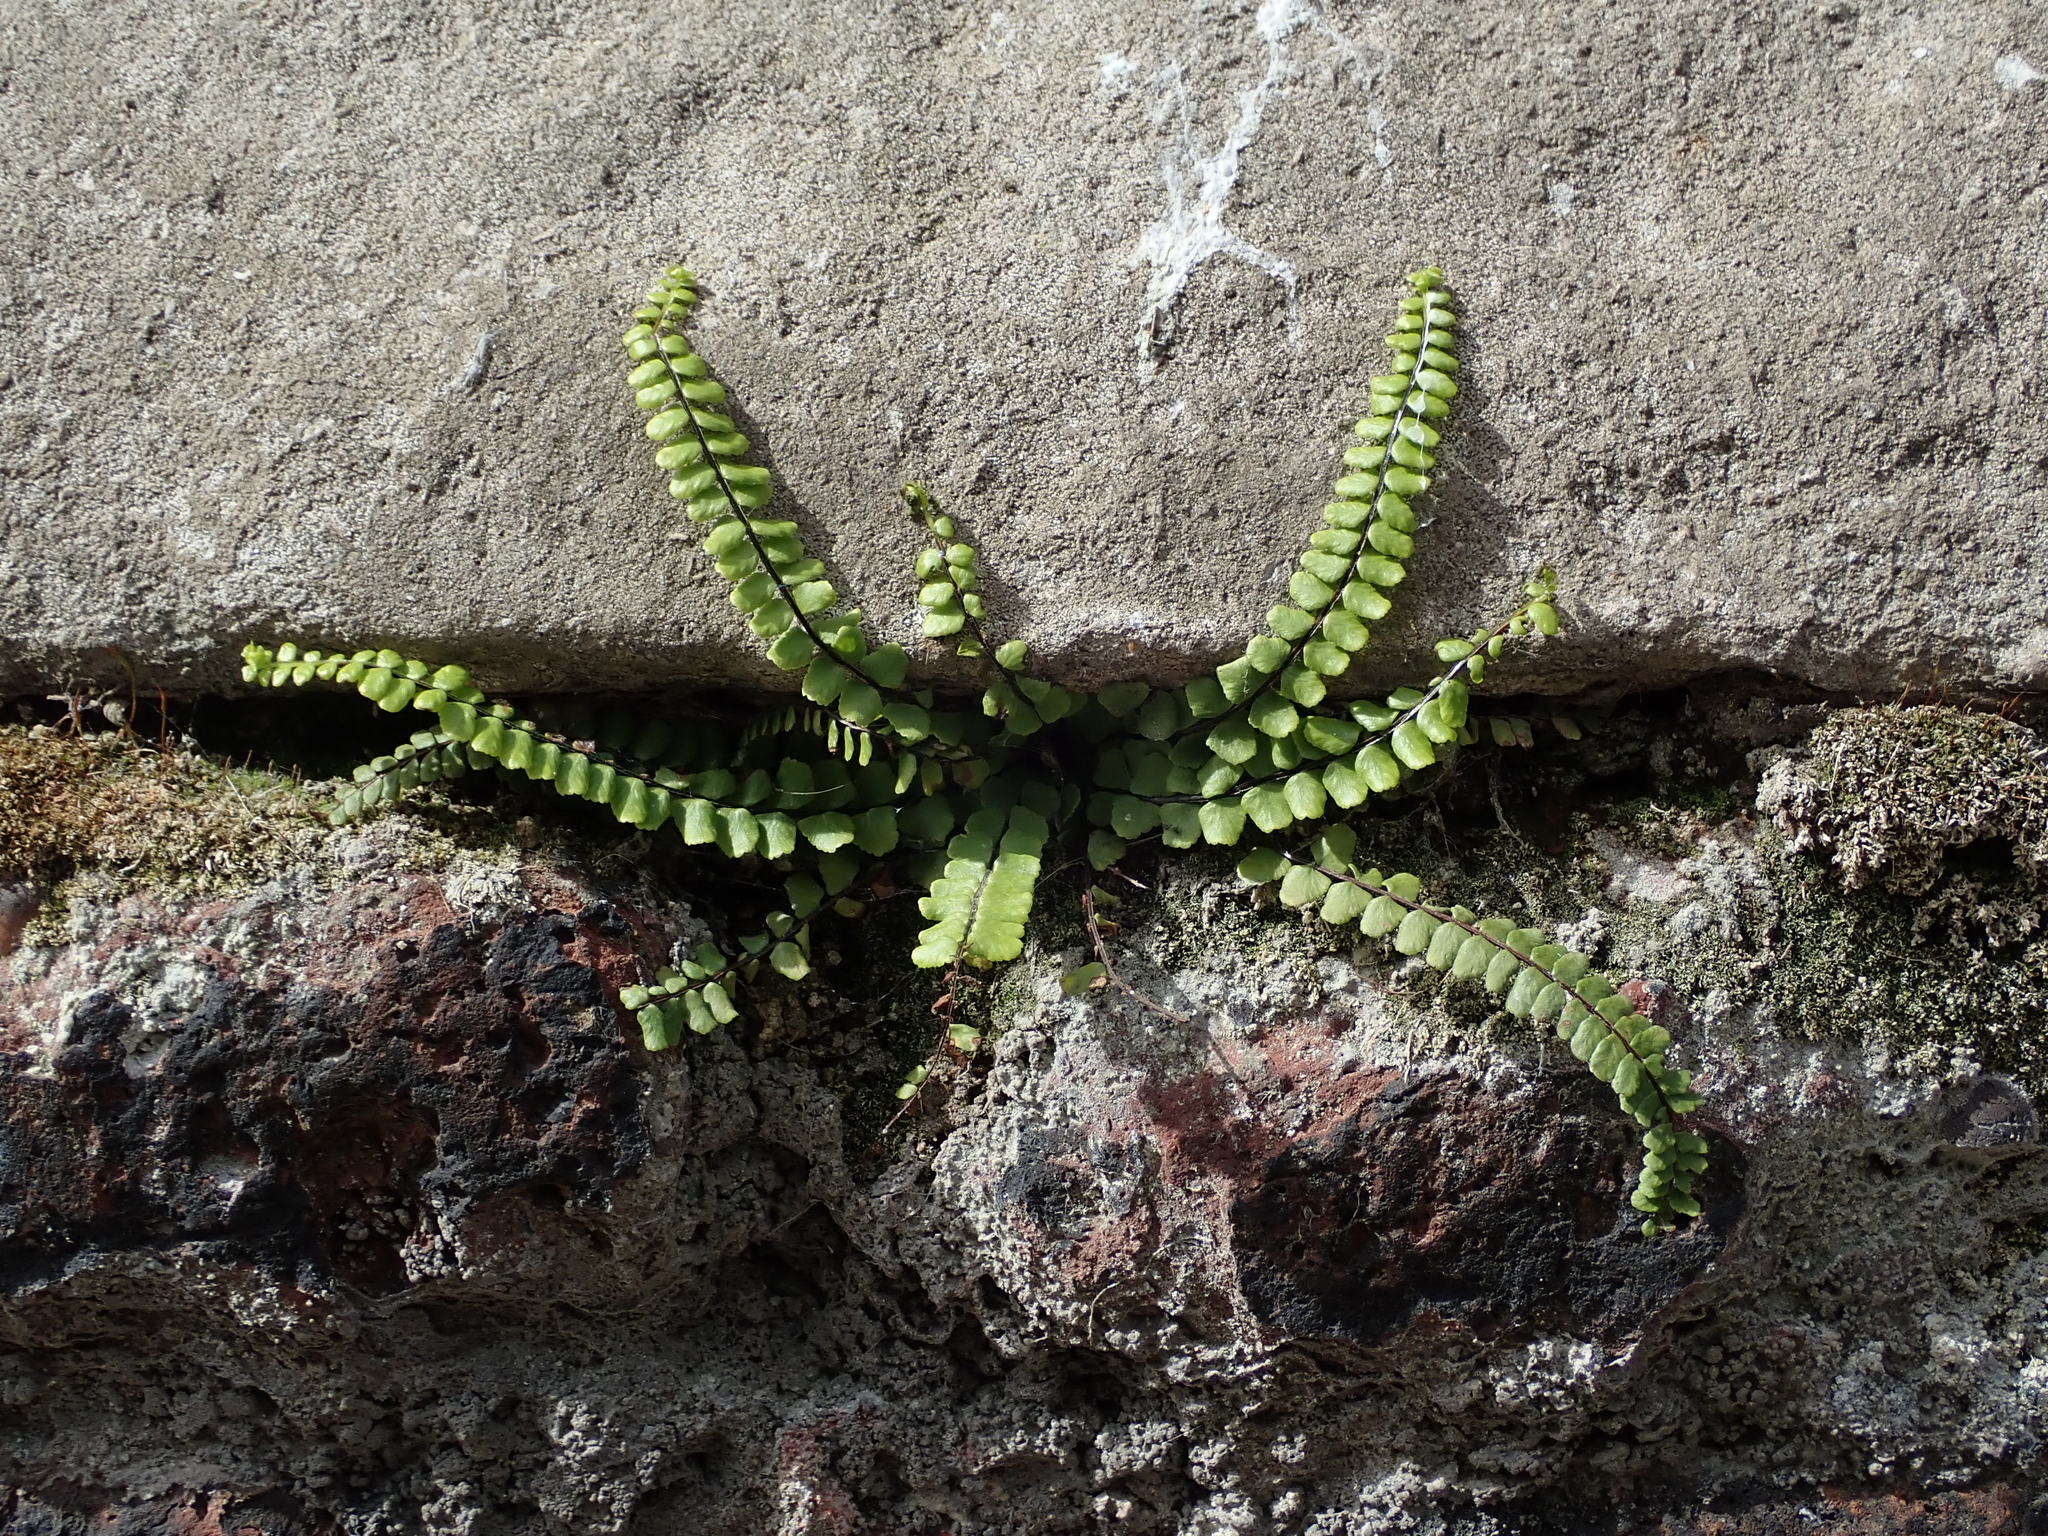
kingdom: Plantae
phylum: Tracheophyta
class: Polypodiopsida
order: Polypodiales
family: Aspleniaceae
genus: Asplenium
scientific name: Asplenium trichomanes
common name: Maidenhair spleenwort
